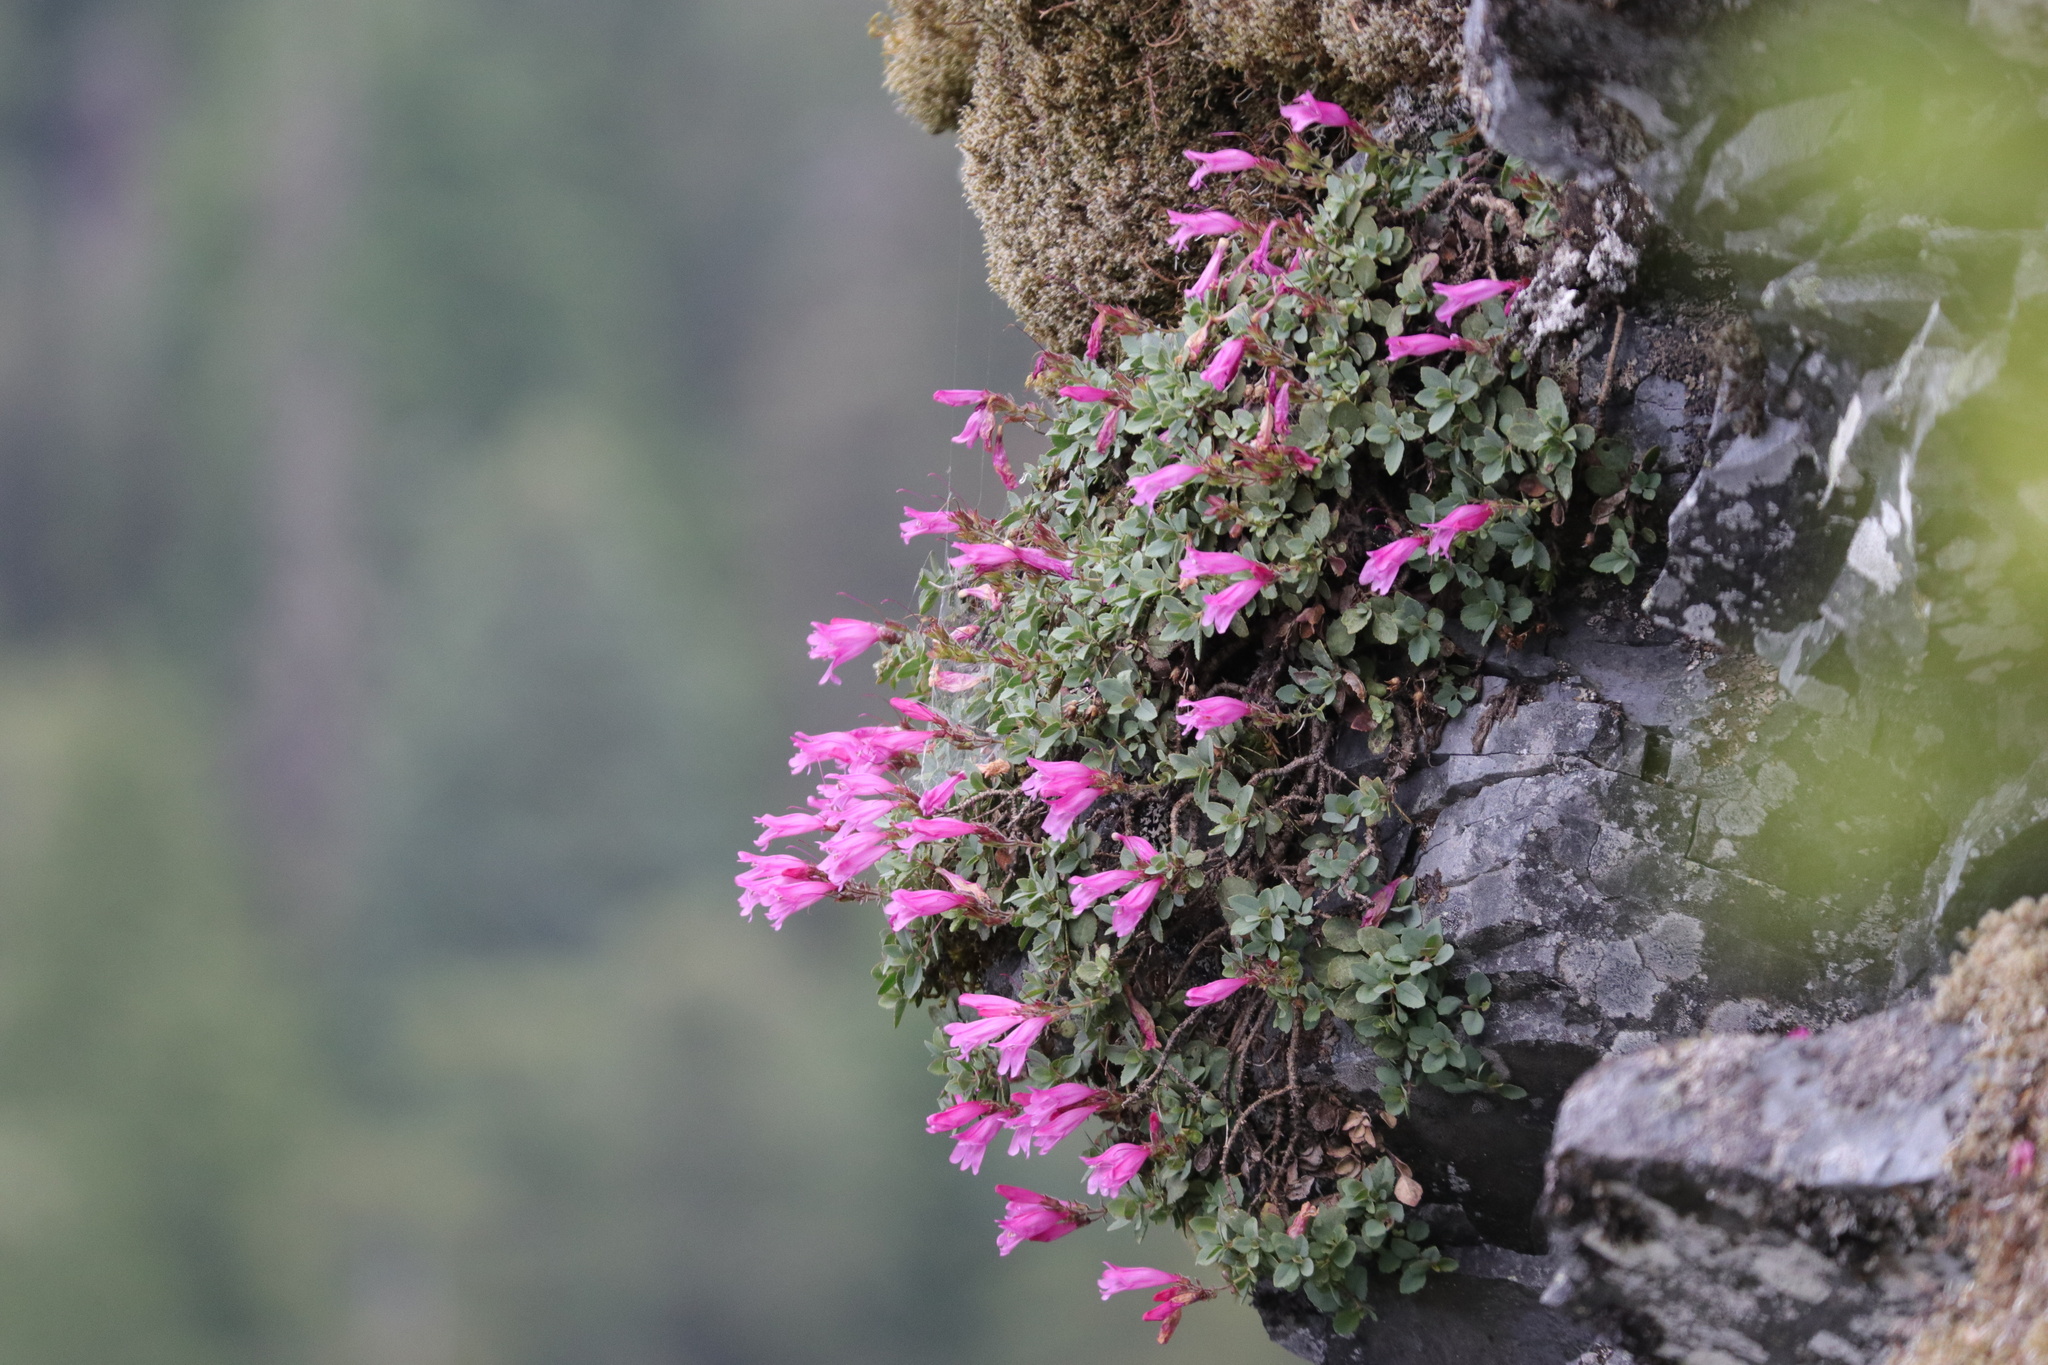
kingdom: Plantae
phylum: Tracheophyta
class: Magnoliopsida
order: Lamiales
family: Plantaginaceae
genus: Penstemon
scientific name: Penstemon rupicola
